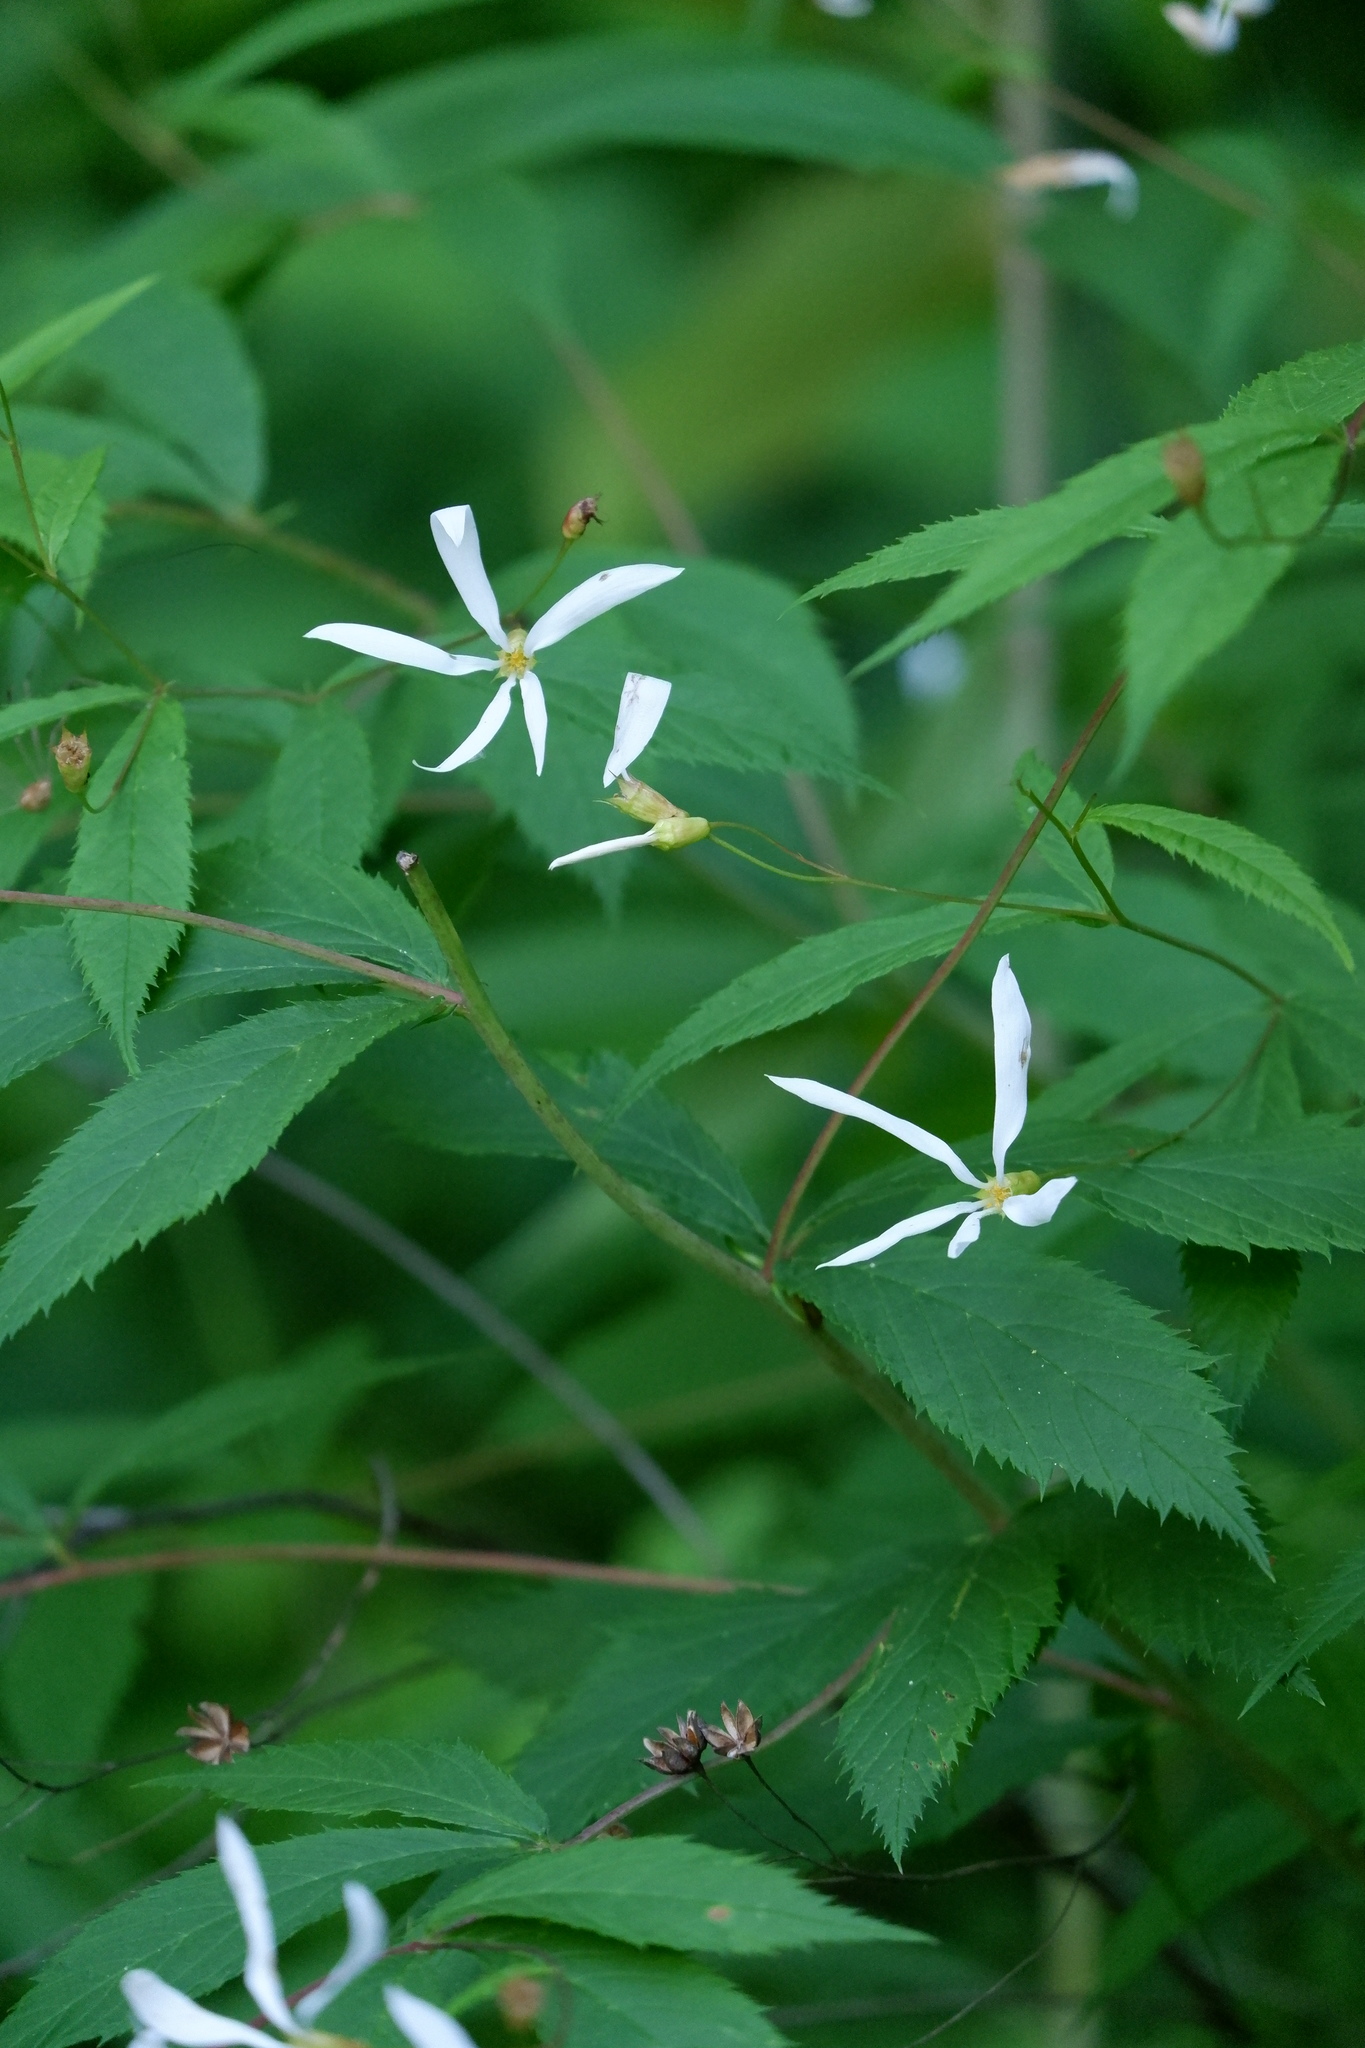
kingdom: Plantae
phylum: Tracheophyta
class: Magnoliopsida
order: Rosales
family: Rosaceae
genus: Gillenia
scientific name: Gillenia trifoliata
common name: Bowman's-root
